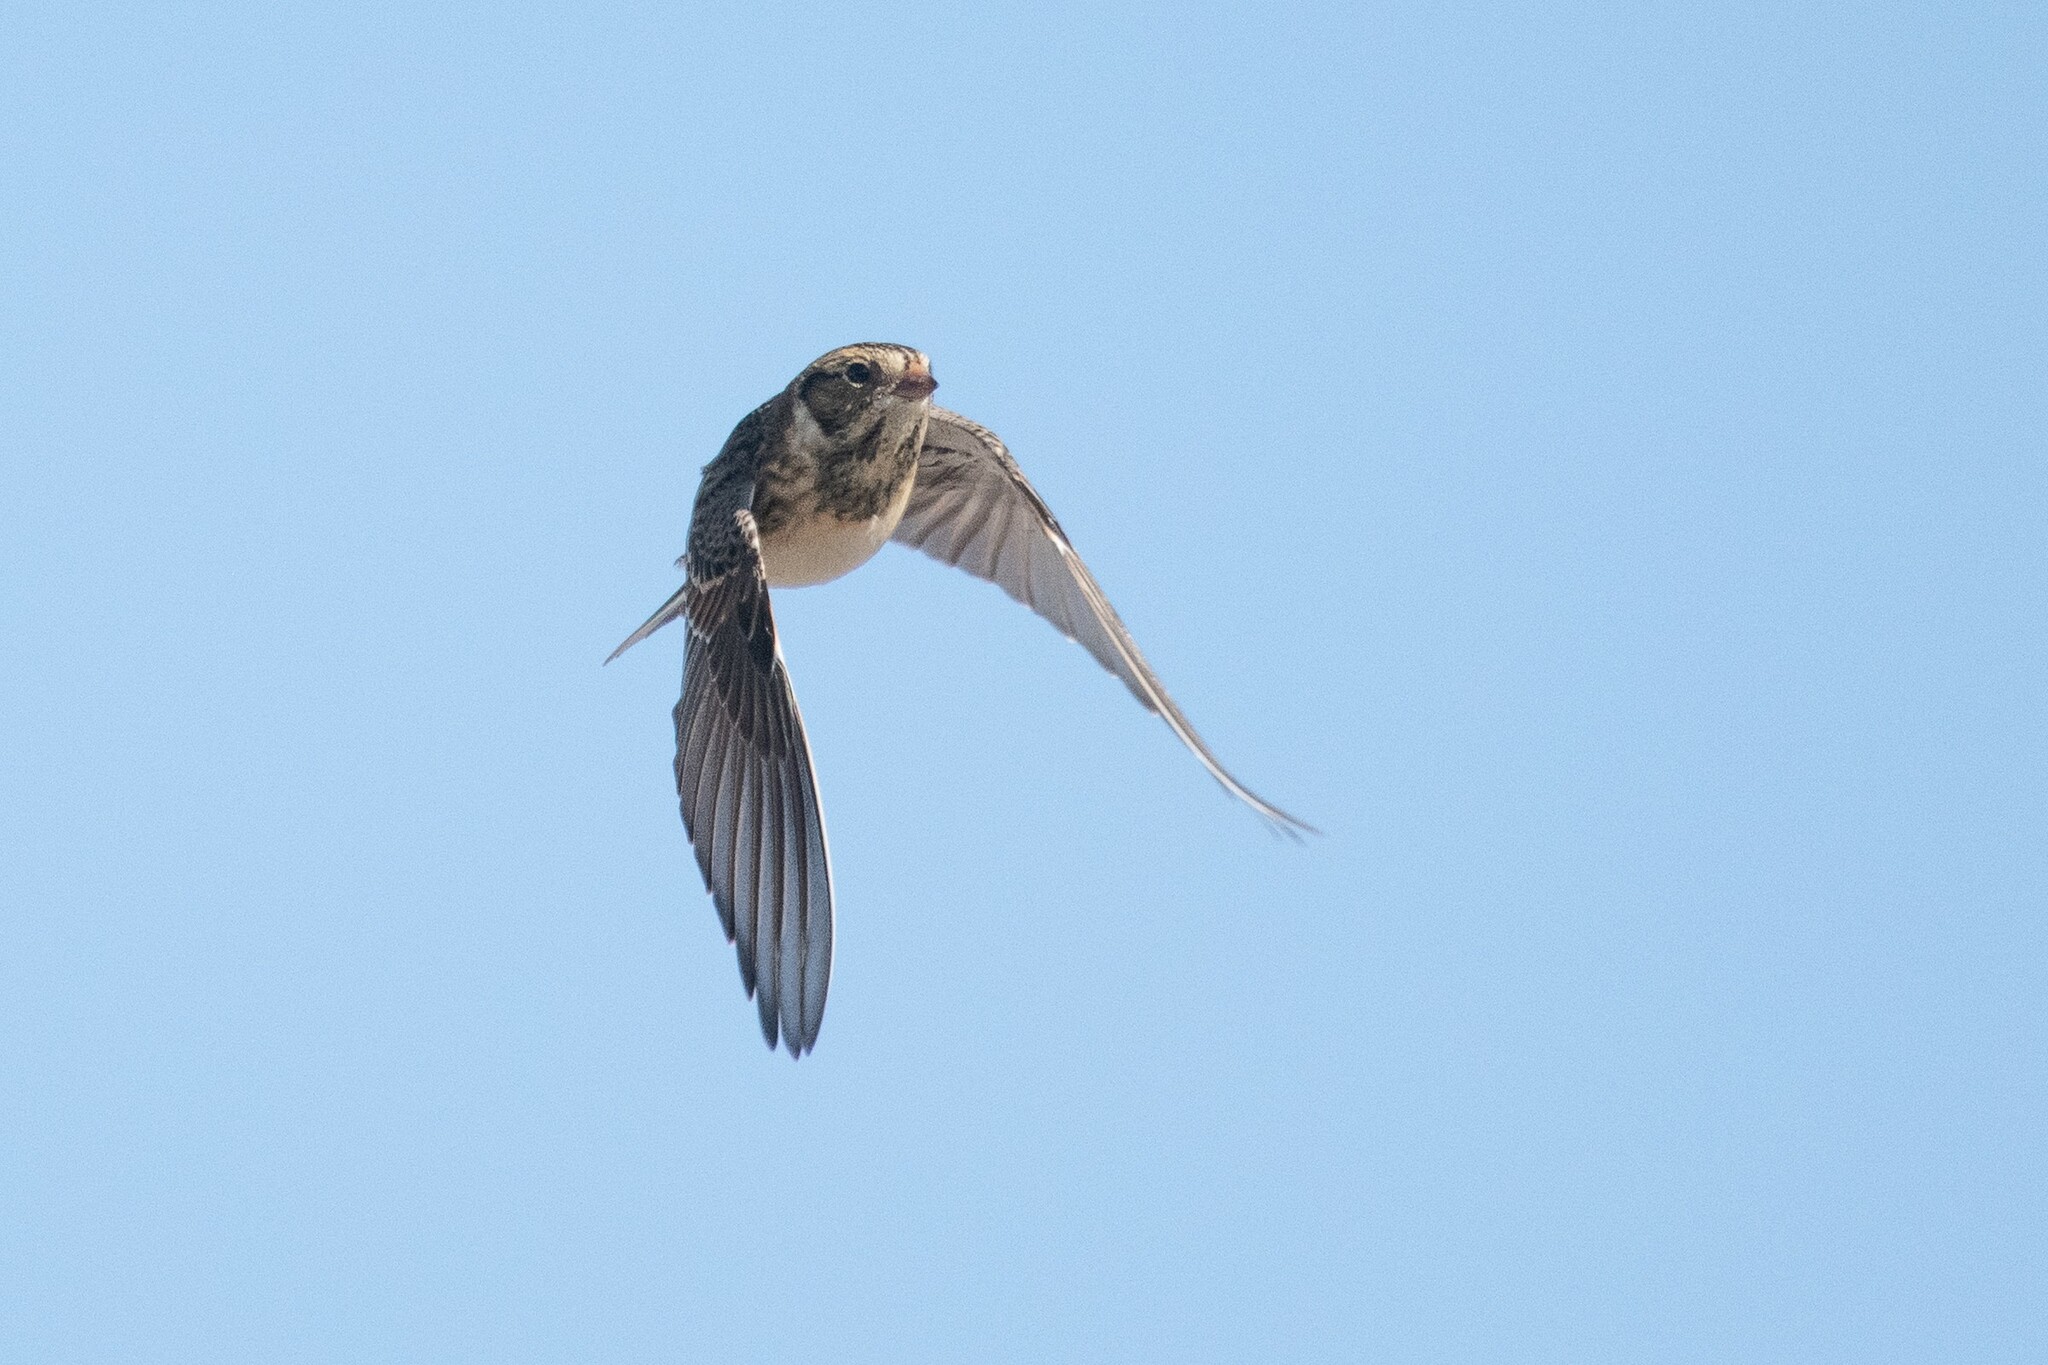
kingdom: Animalia
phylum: Chordata
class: Aves
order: Passeriformes
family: Calcariidae
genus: Calcarius
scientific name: Calcarius lapponicus
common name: Lapland longspur
